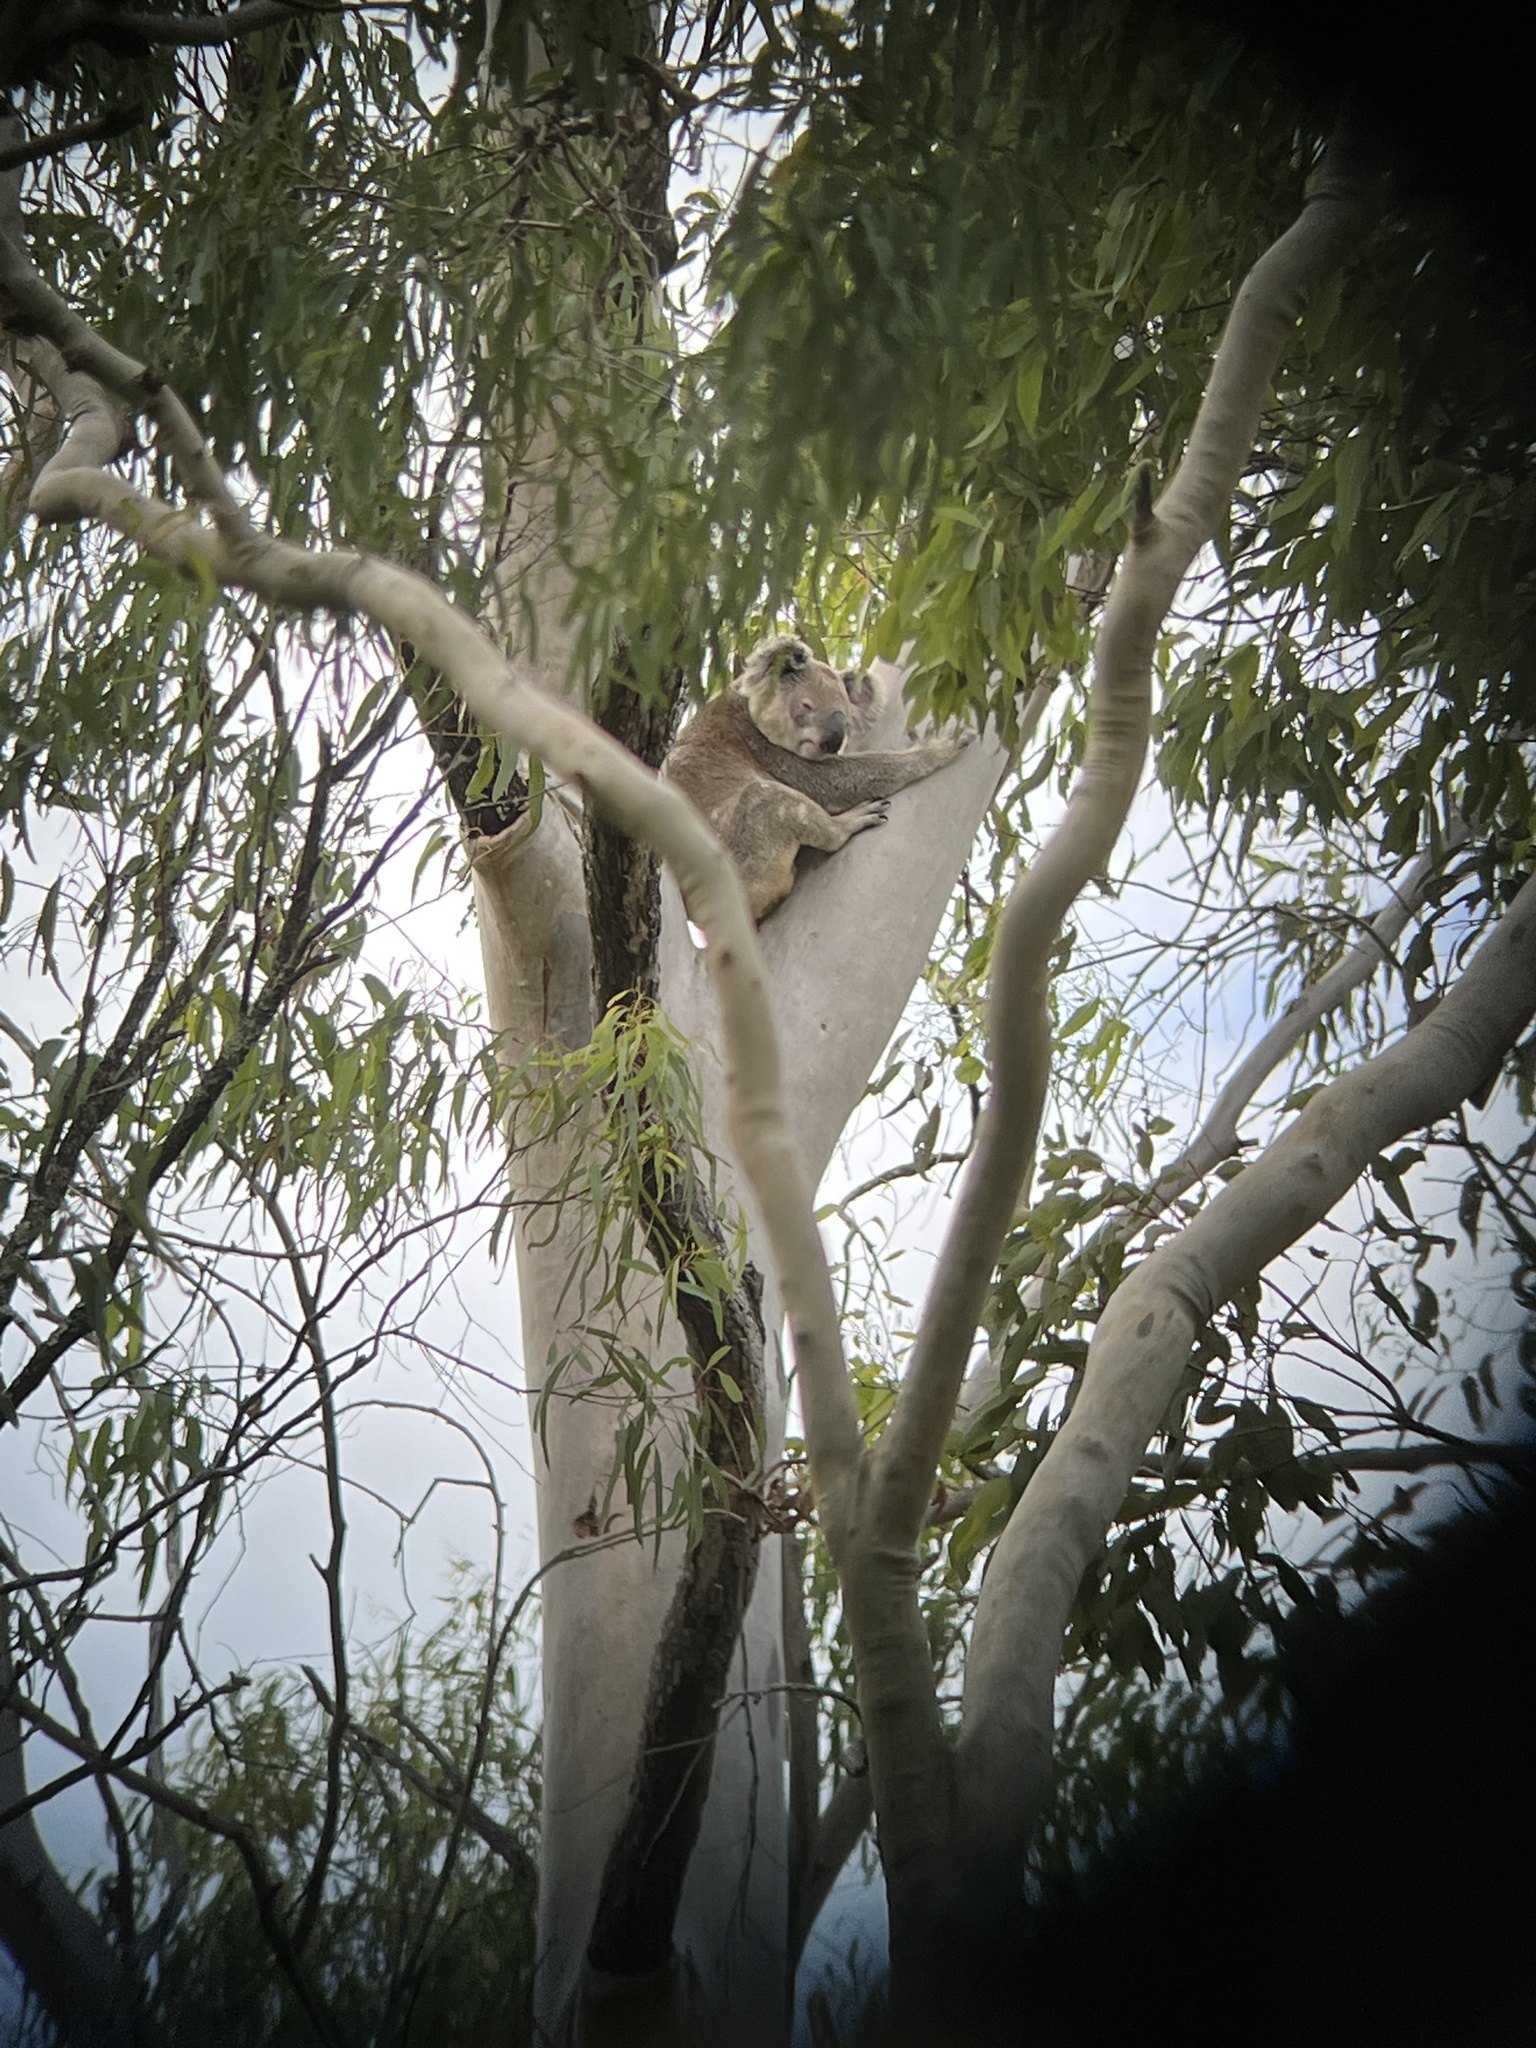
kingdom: Animalia
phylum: Chordata
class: Mammalia
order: Diprotodontia
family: Phascolarctidae
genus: Phascolarctos
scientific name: Phascolarctos cinereus
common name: Koala
